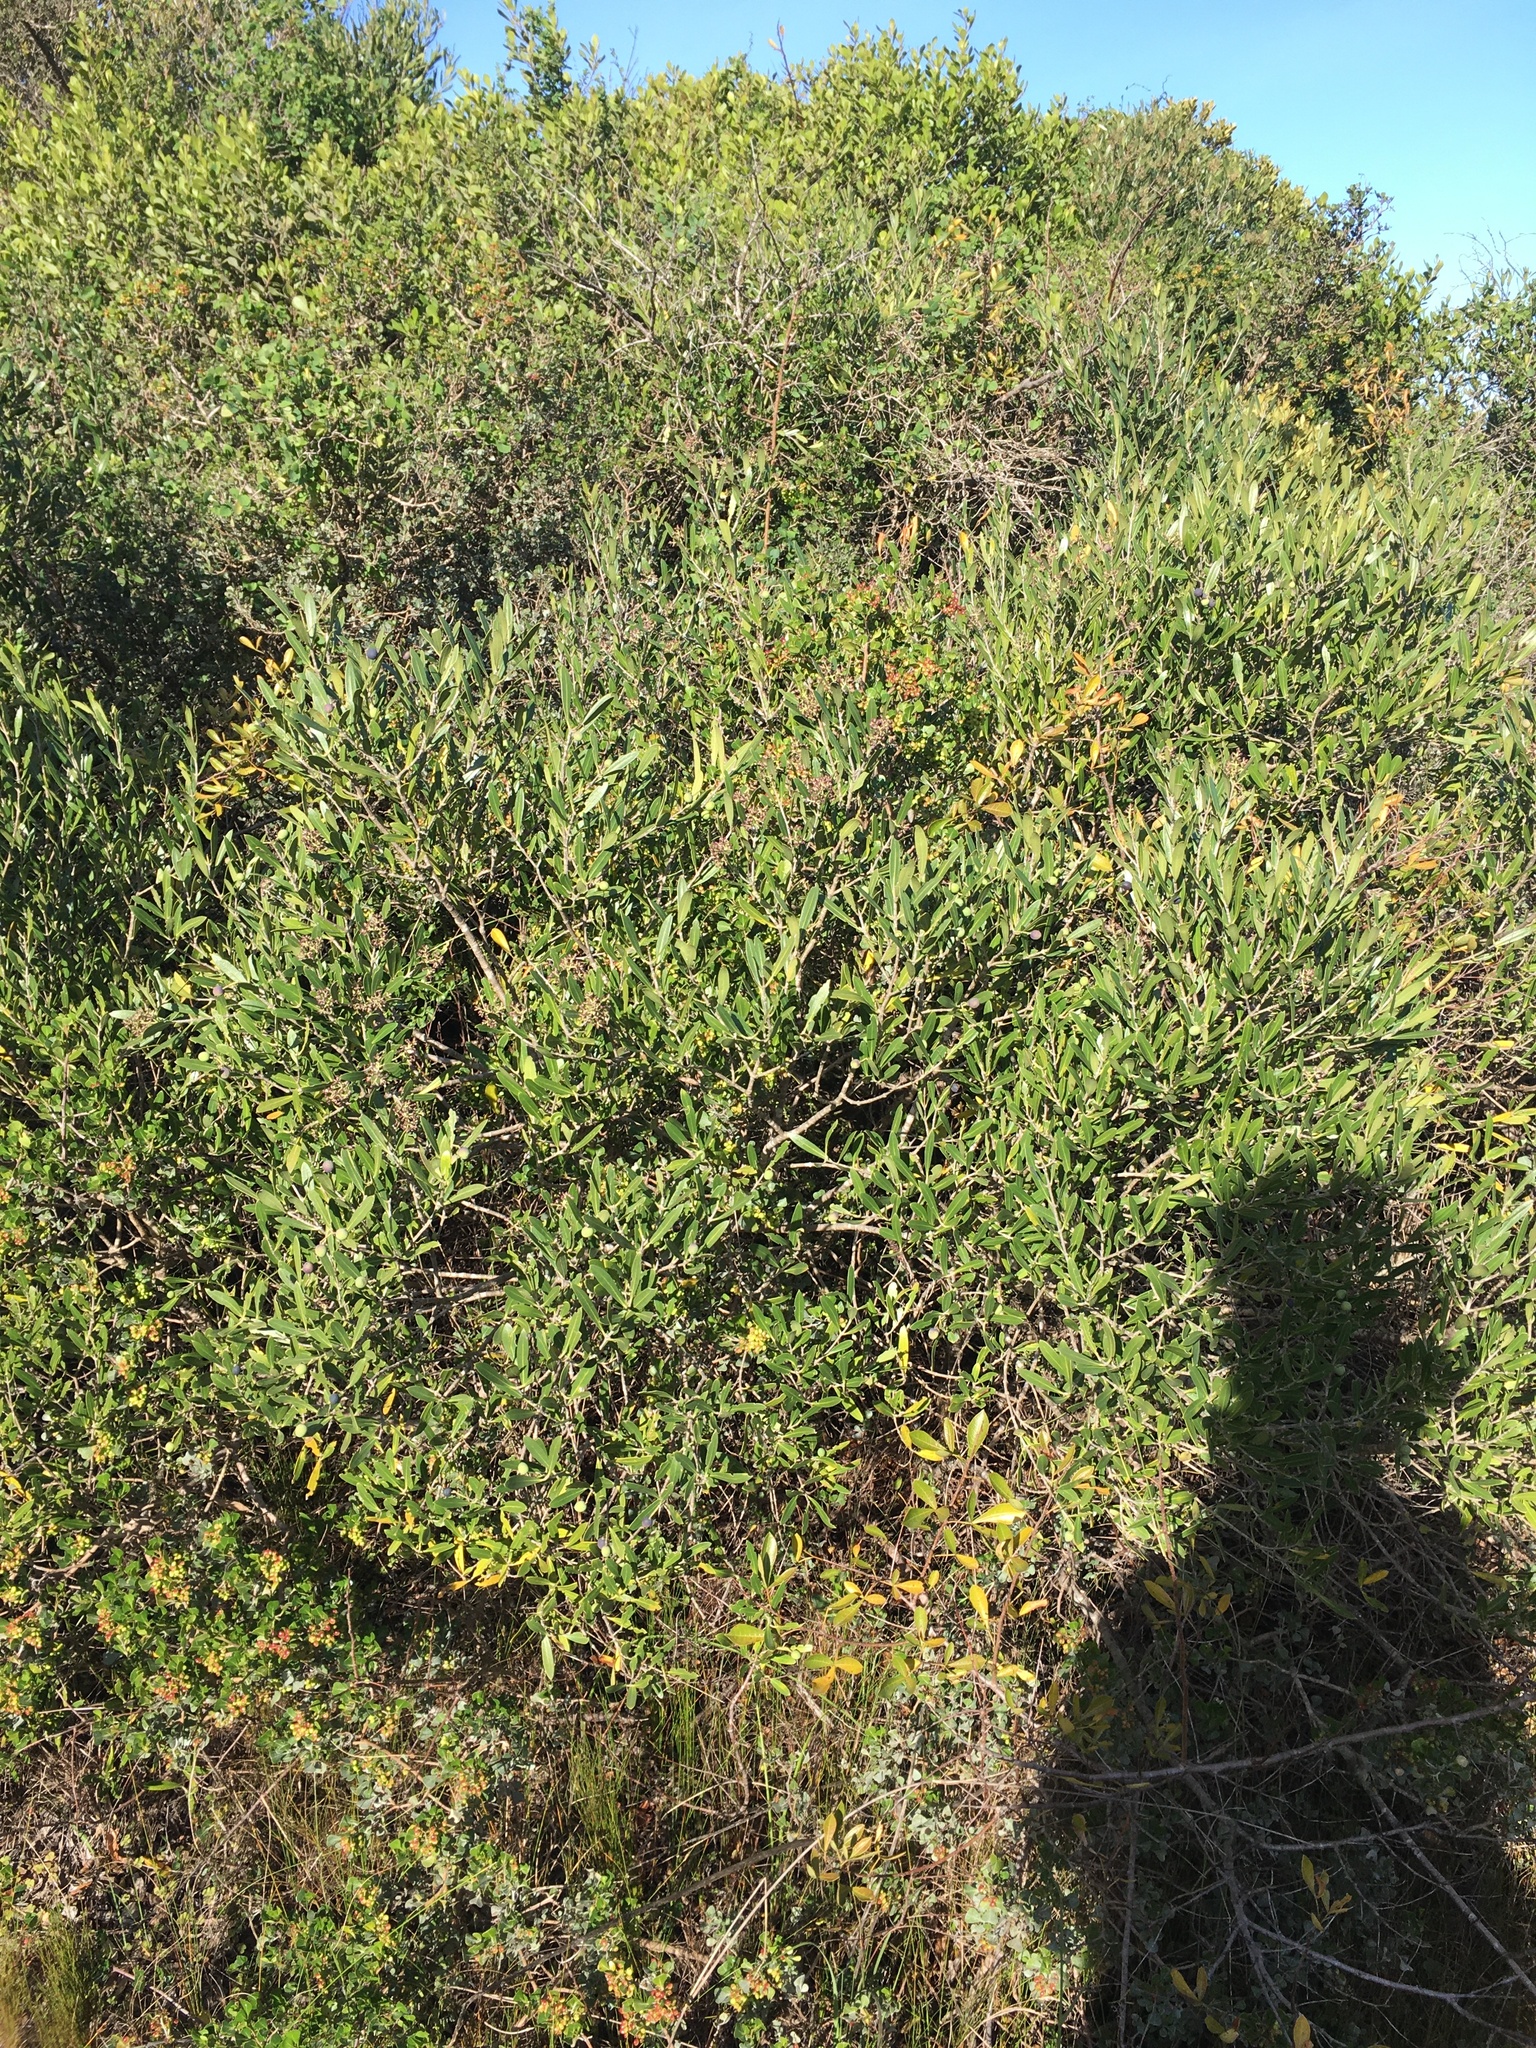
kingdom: Plantae
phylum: Tracheophyta
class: Magnoliopsida
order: Lamiales
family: Oleaceae
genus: Olea
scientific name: Olea exasperata
